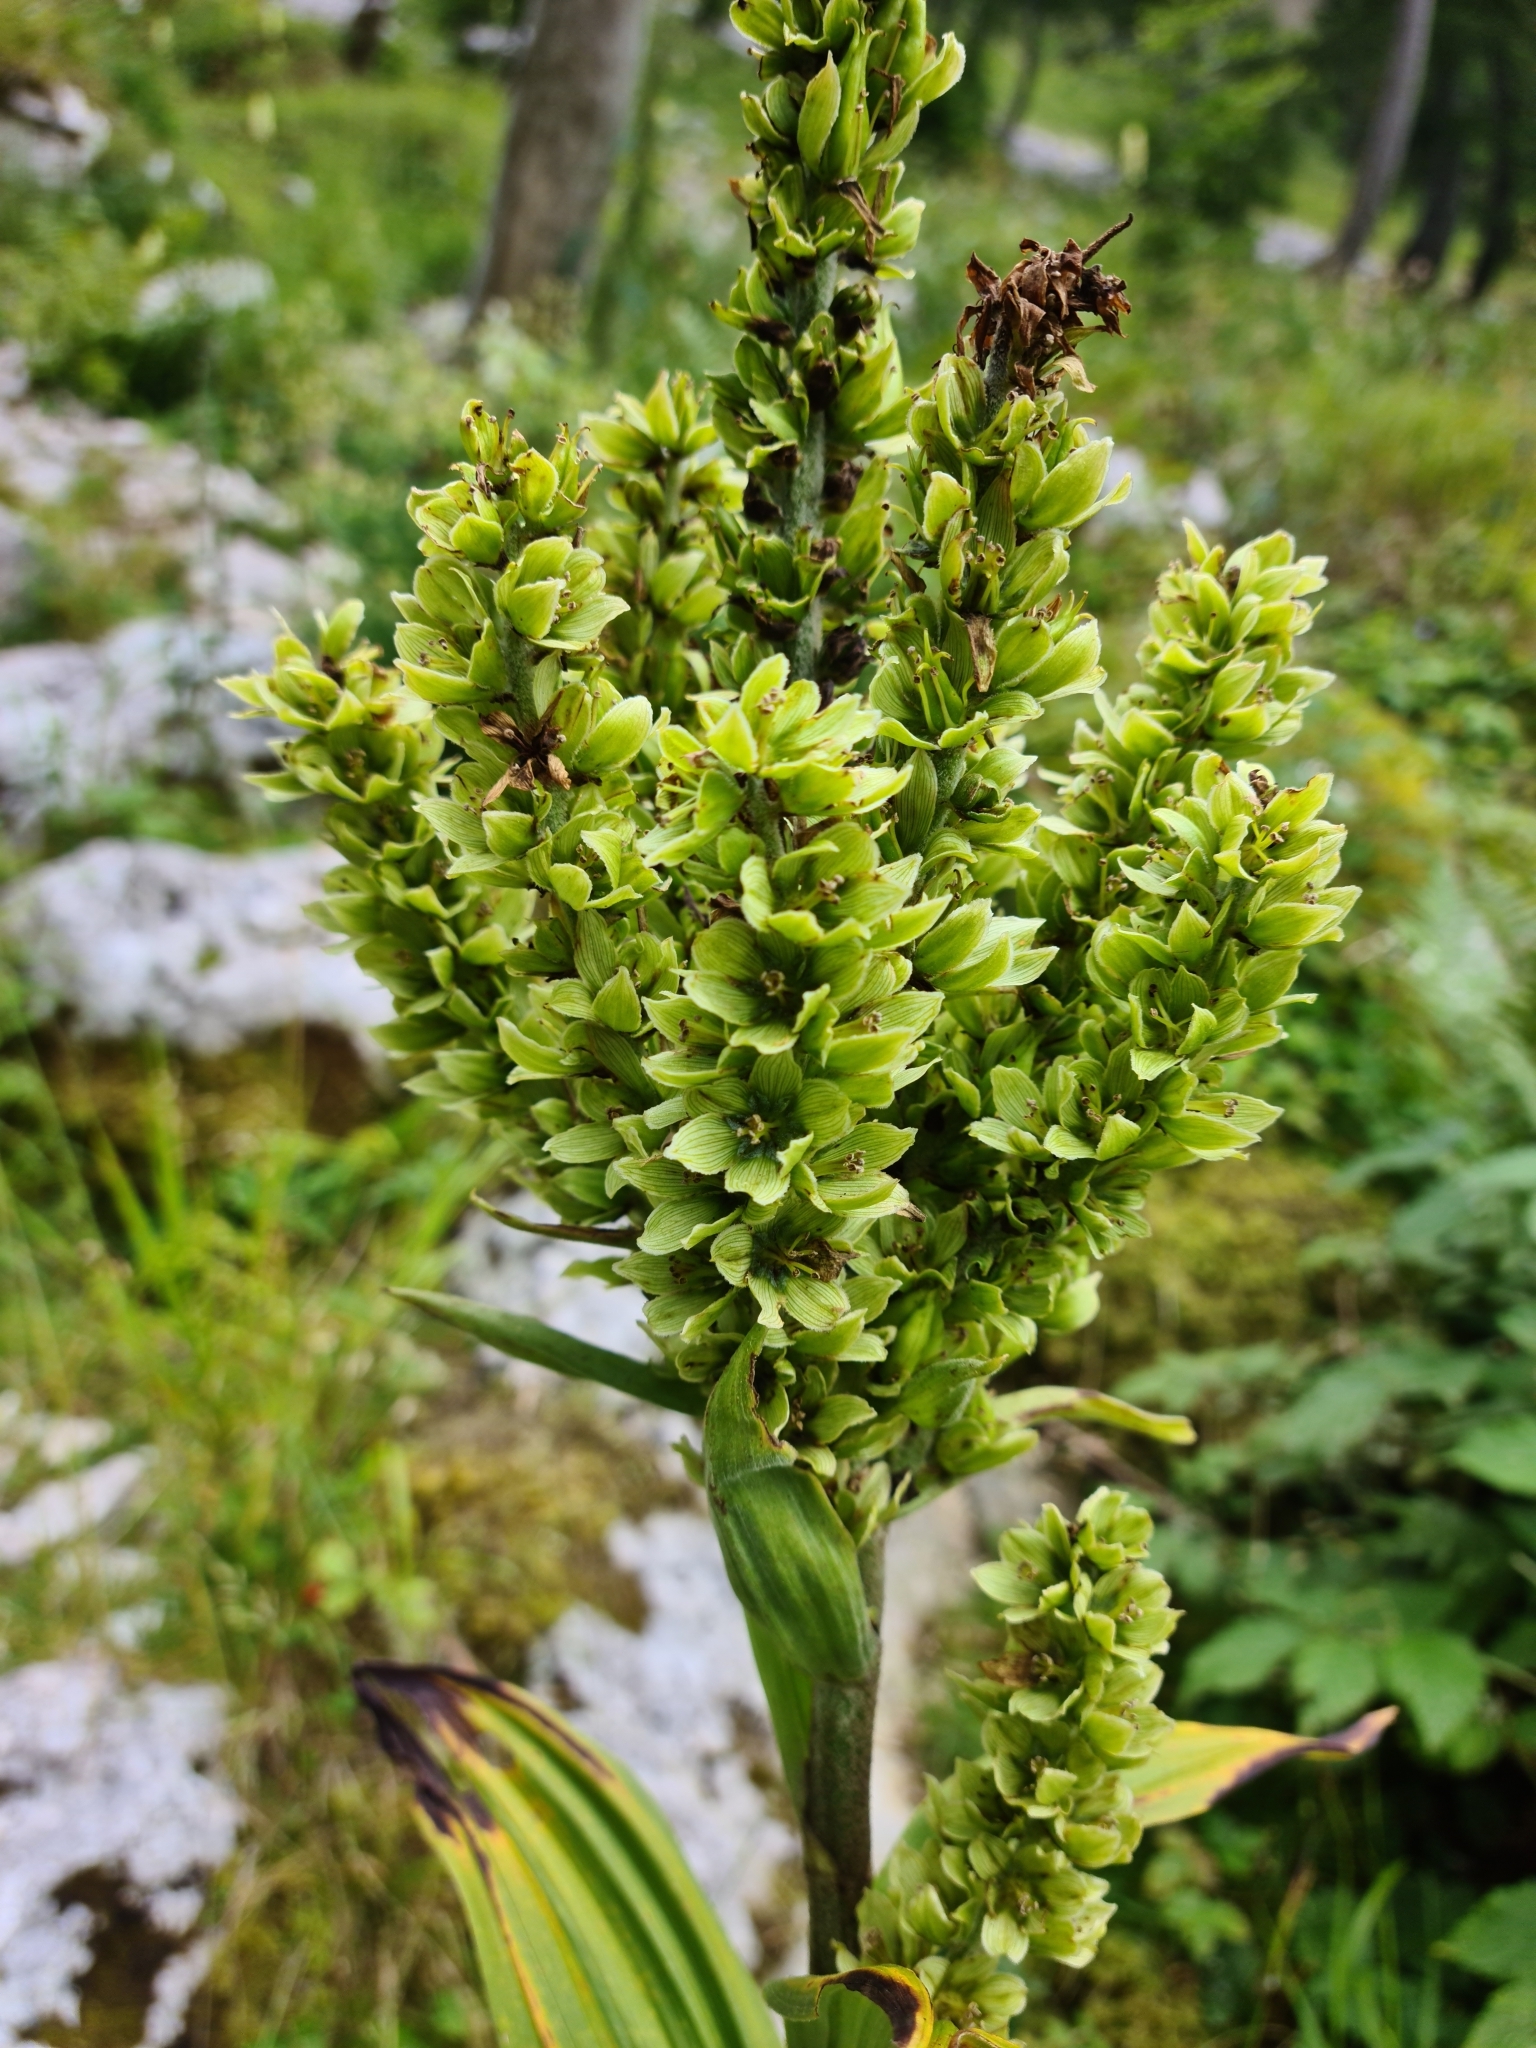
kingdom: Plantae
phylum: Tracheophyta
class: Liliopsida
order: Liliales
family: Melanthiaceae
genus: Veratrum
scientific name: Veratrum album
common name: White veratrum
